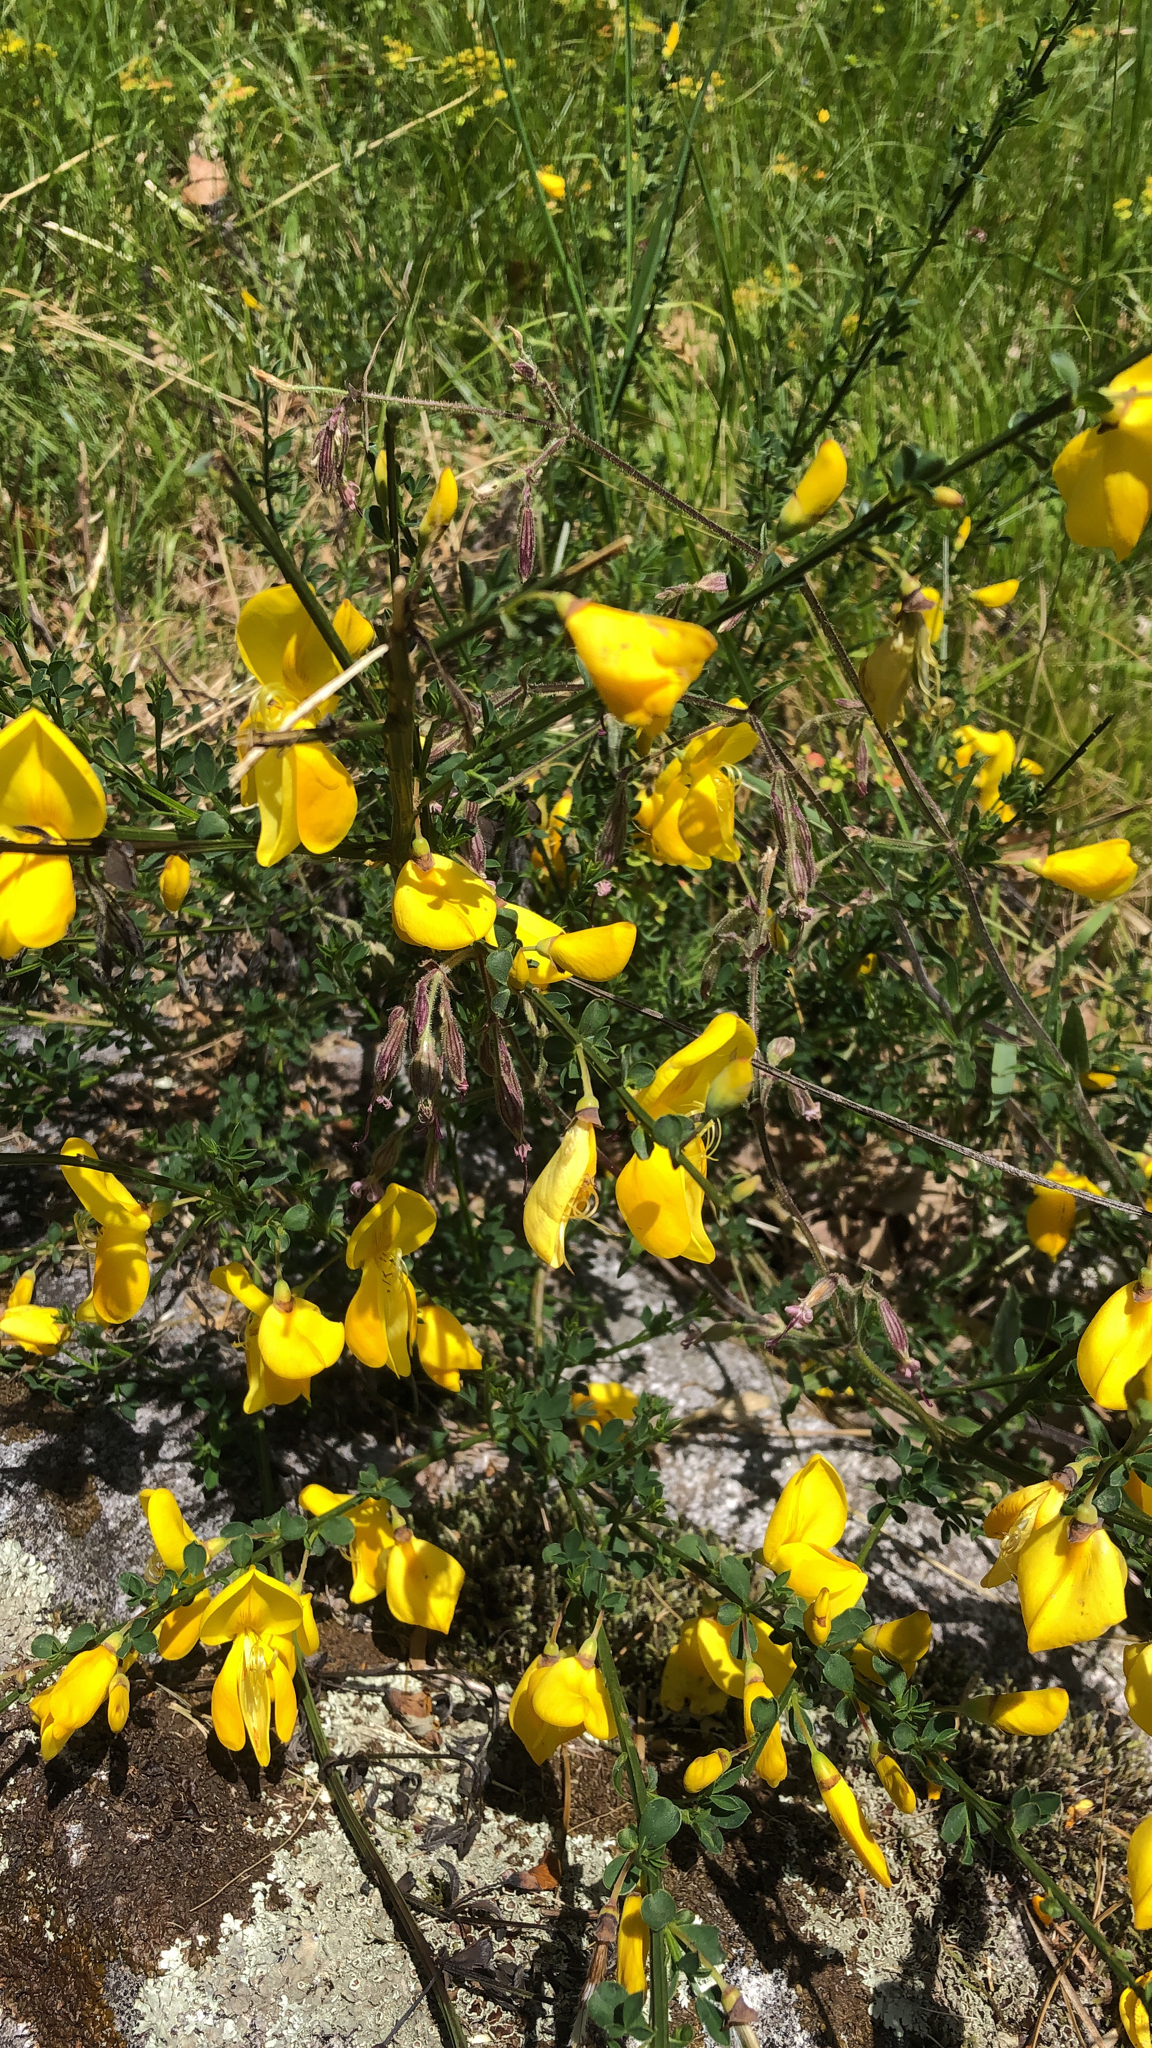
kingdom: Plantae
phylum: Tracheophyta
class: Magnoliopsida
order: Fabales
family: Fabaceae
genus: Cytisus
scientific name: Cytisus scoparius
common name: Scotch broom
